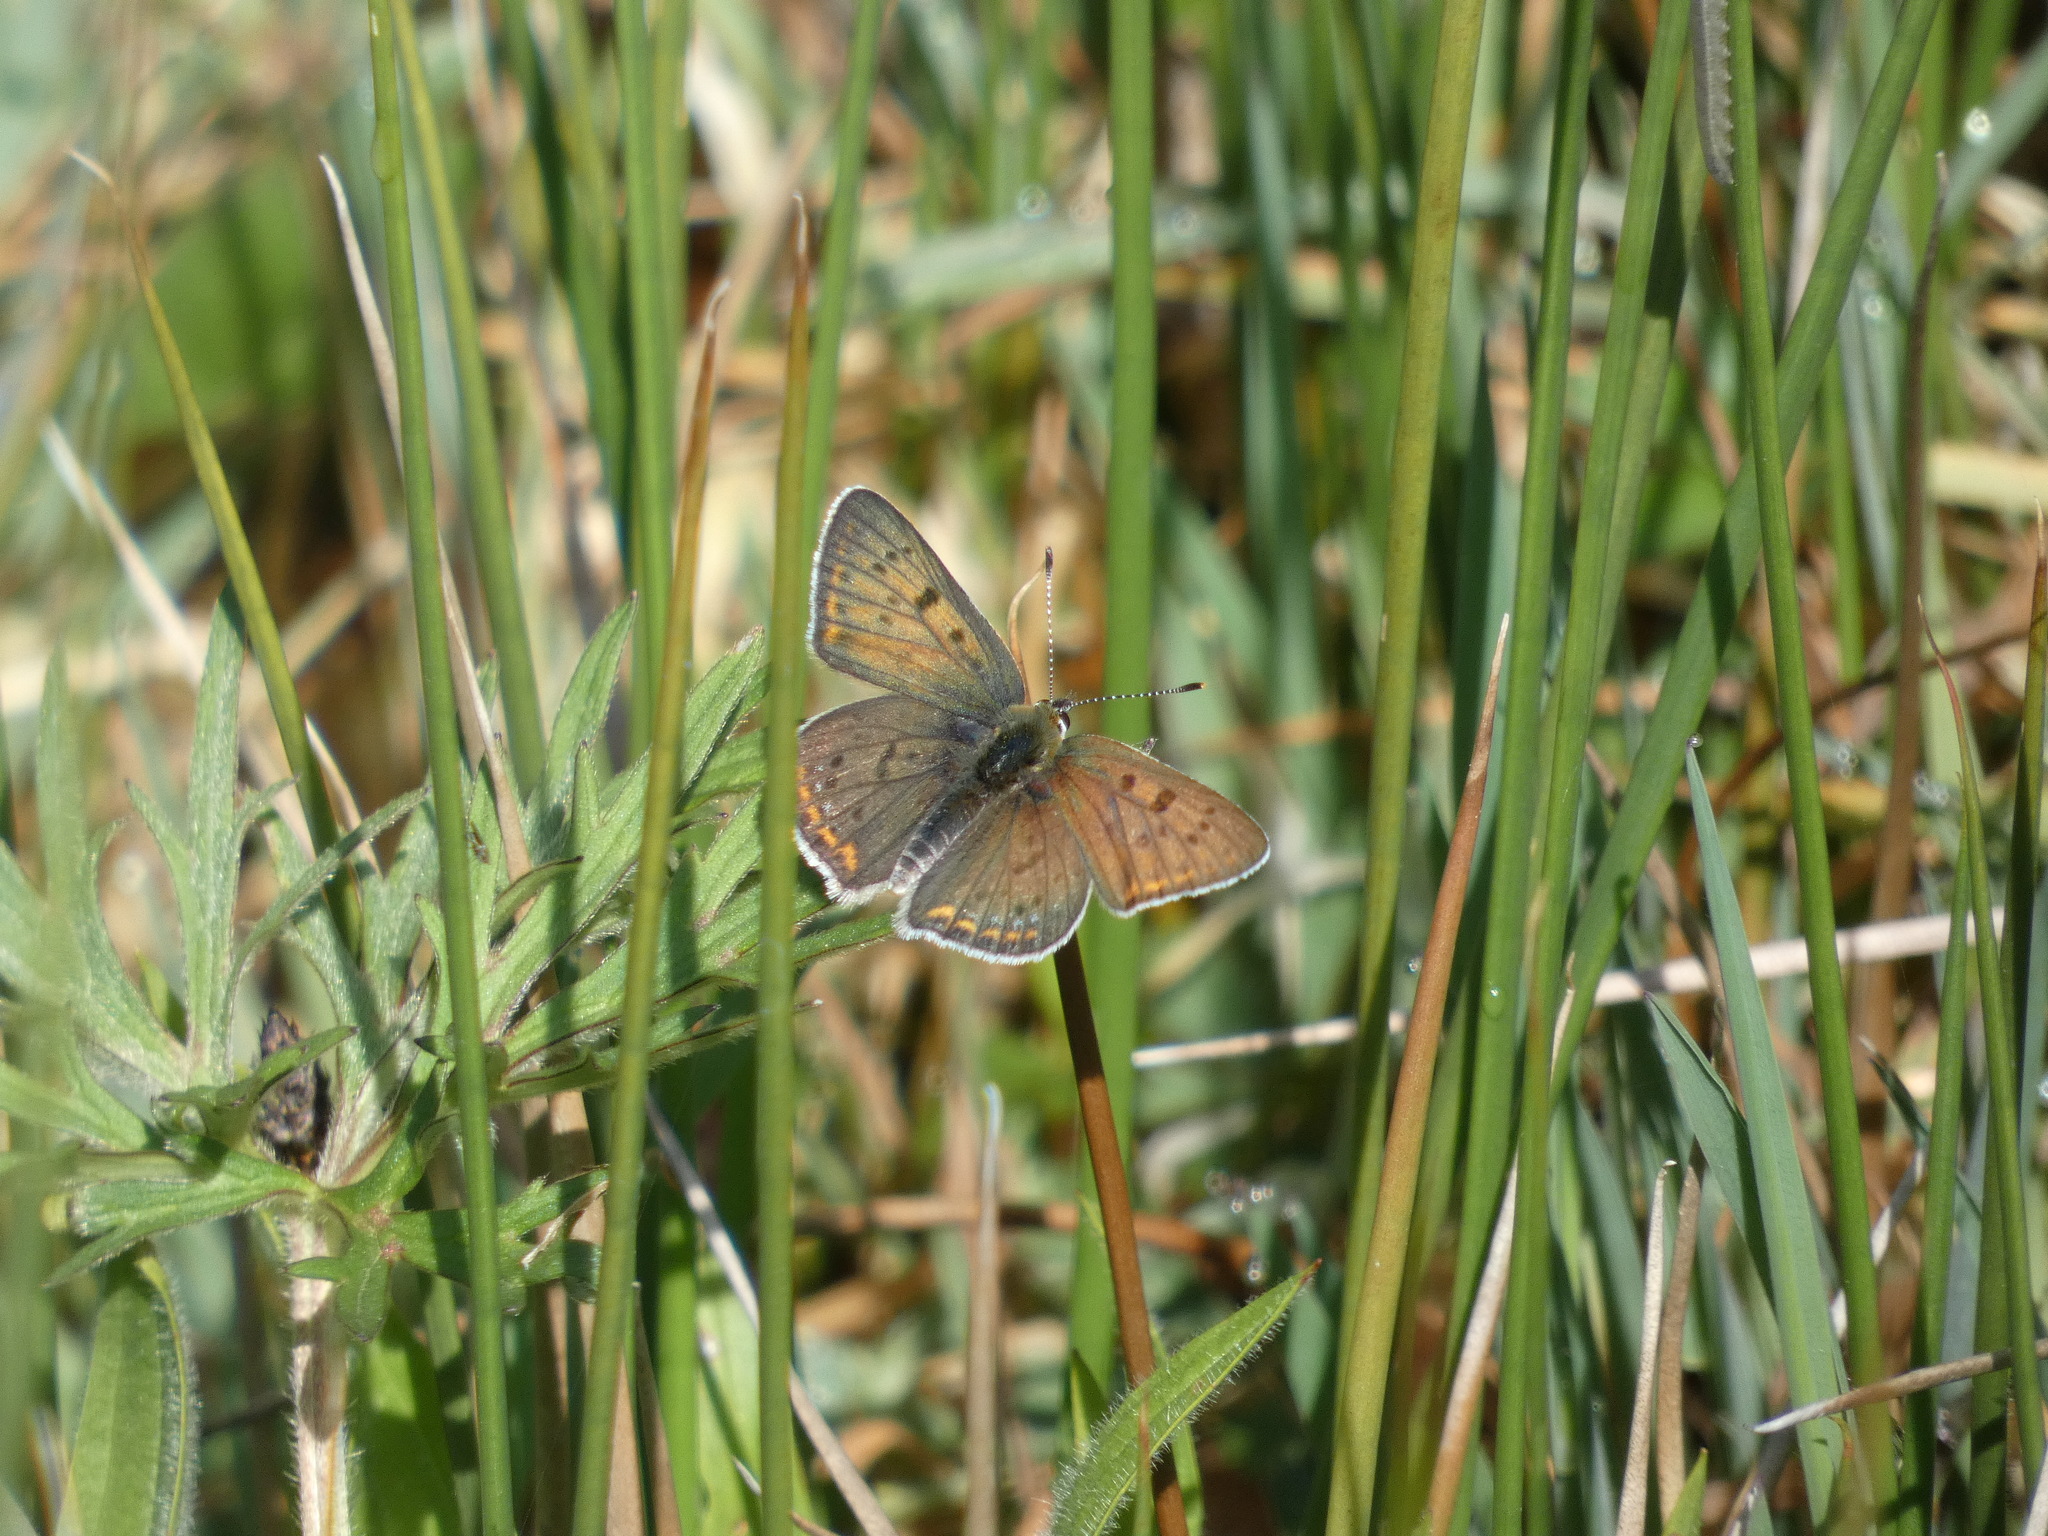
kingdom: Animalia
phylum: Arthropoda
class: Insecta
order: Lepidoptera
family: Lycaenidae
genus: Loweia
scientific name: Loweia tityrus
